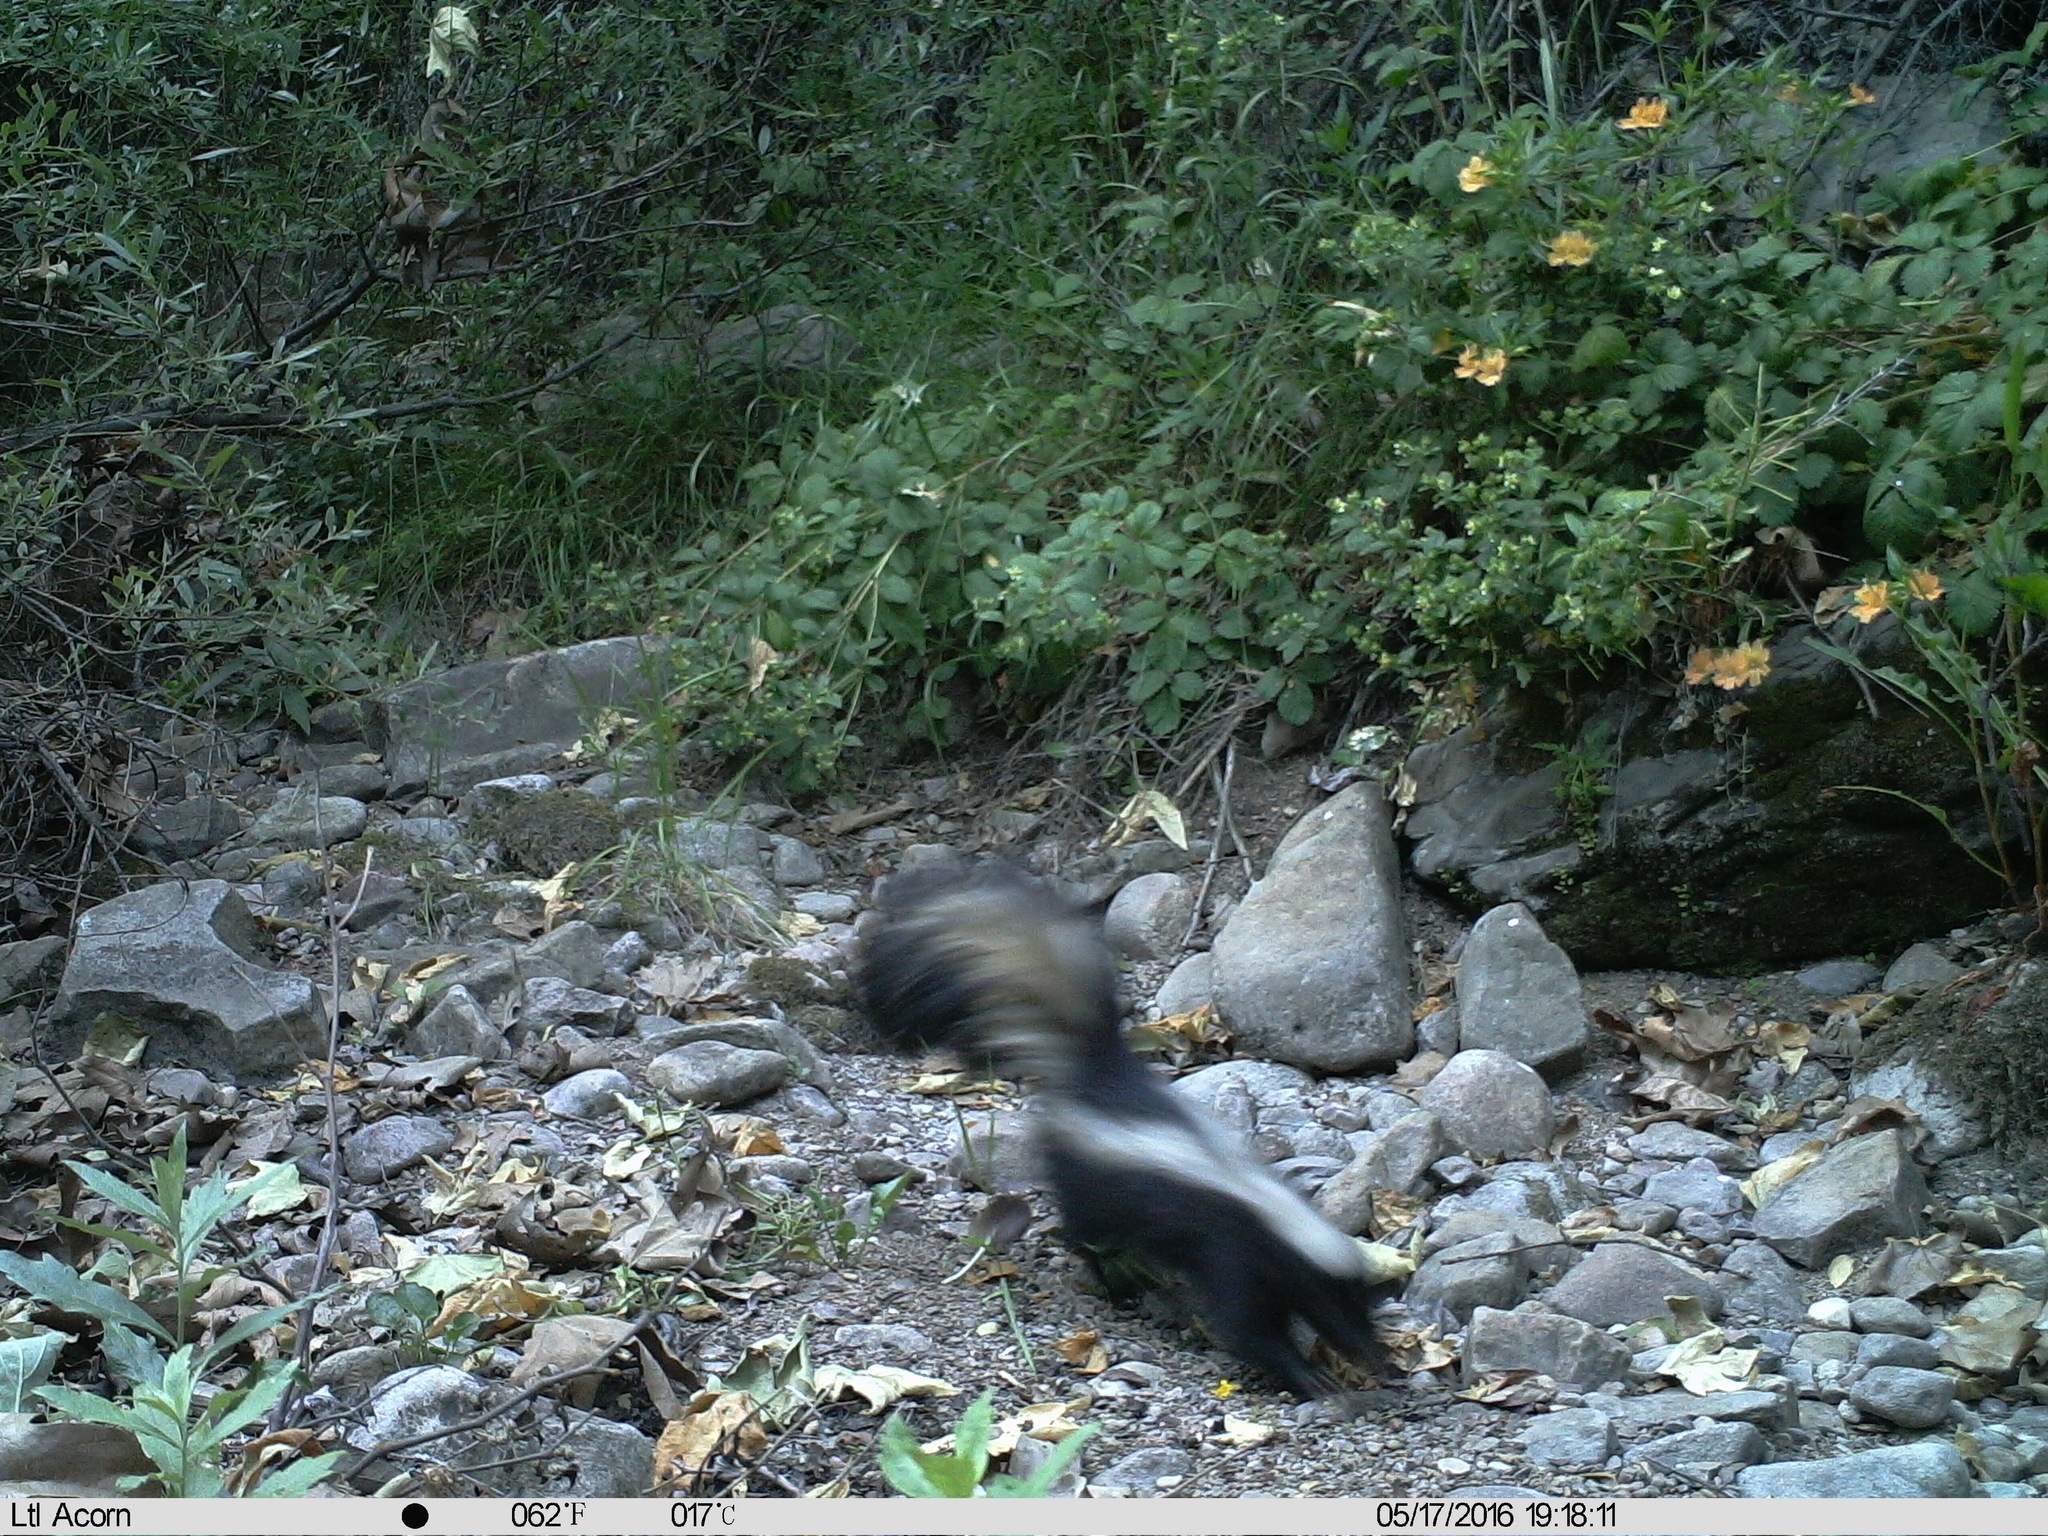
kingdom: Animalia
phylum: Chordata
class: Mammalia
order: Carnivora
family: Mephitidae
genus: Mephitis
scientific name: Mephitis mephitis
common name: Striped skunk
